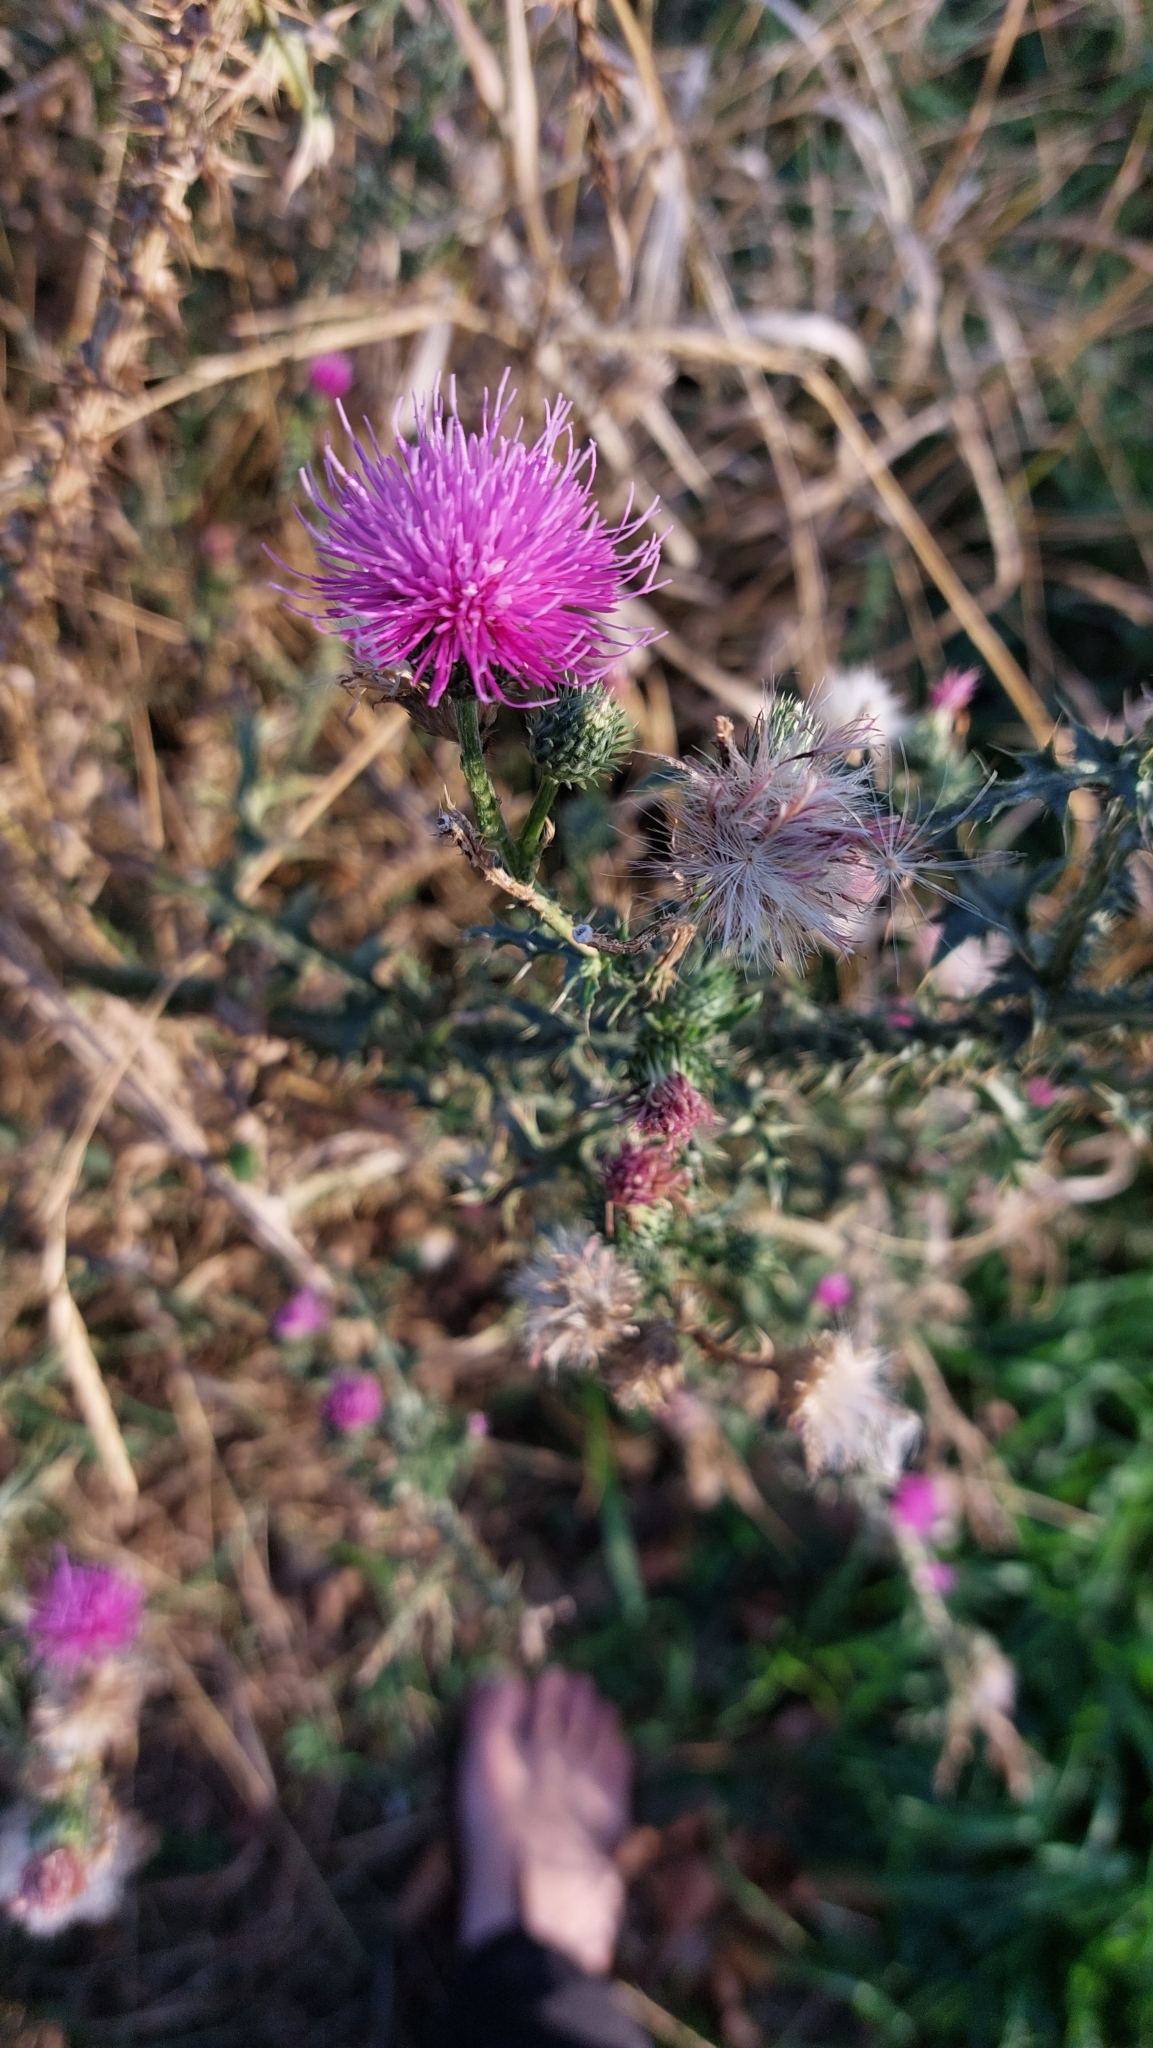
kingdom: Plantae
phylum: Tracheophyta
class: Magnoliopsida
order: Asterales
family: Asteraceae
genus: Carduus
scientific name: Carduus acanthoides
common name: Plumeless thistle
